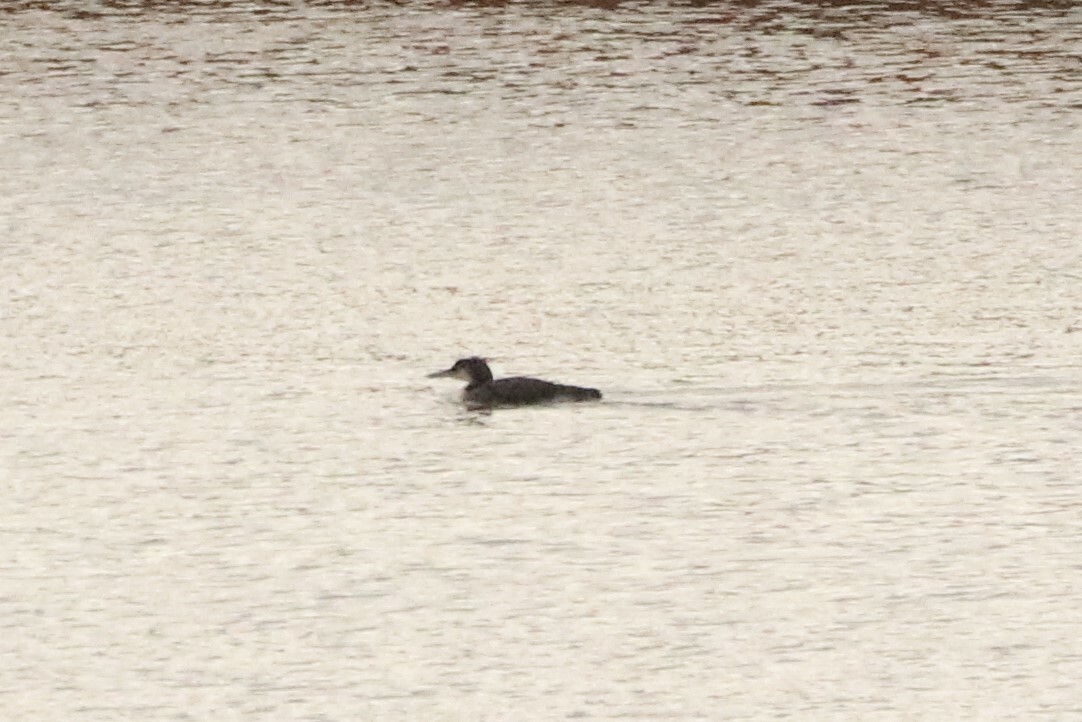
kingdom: Animalia
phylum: Chordata
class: Aves
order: Gaviiformes
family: Gaviidae
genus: Gavia
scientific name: Gavia immer
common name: Common loon
